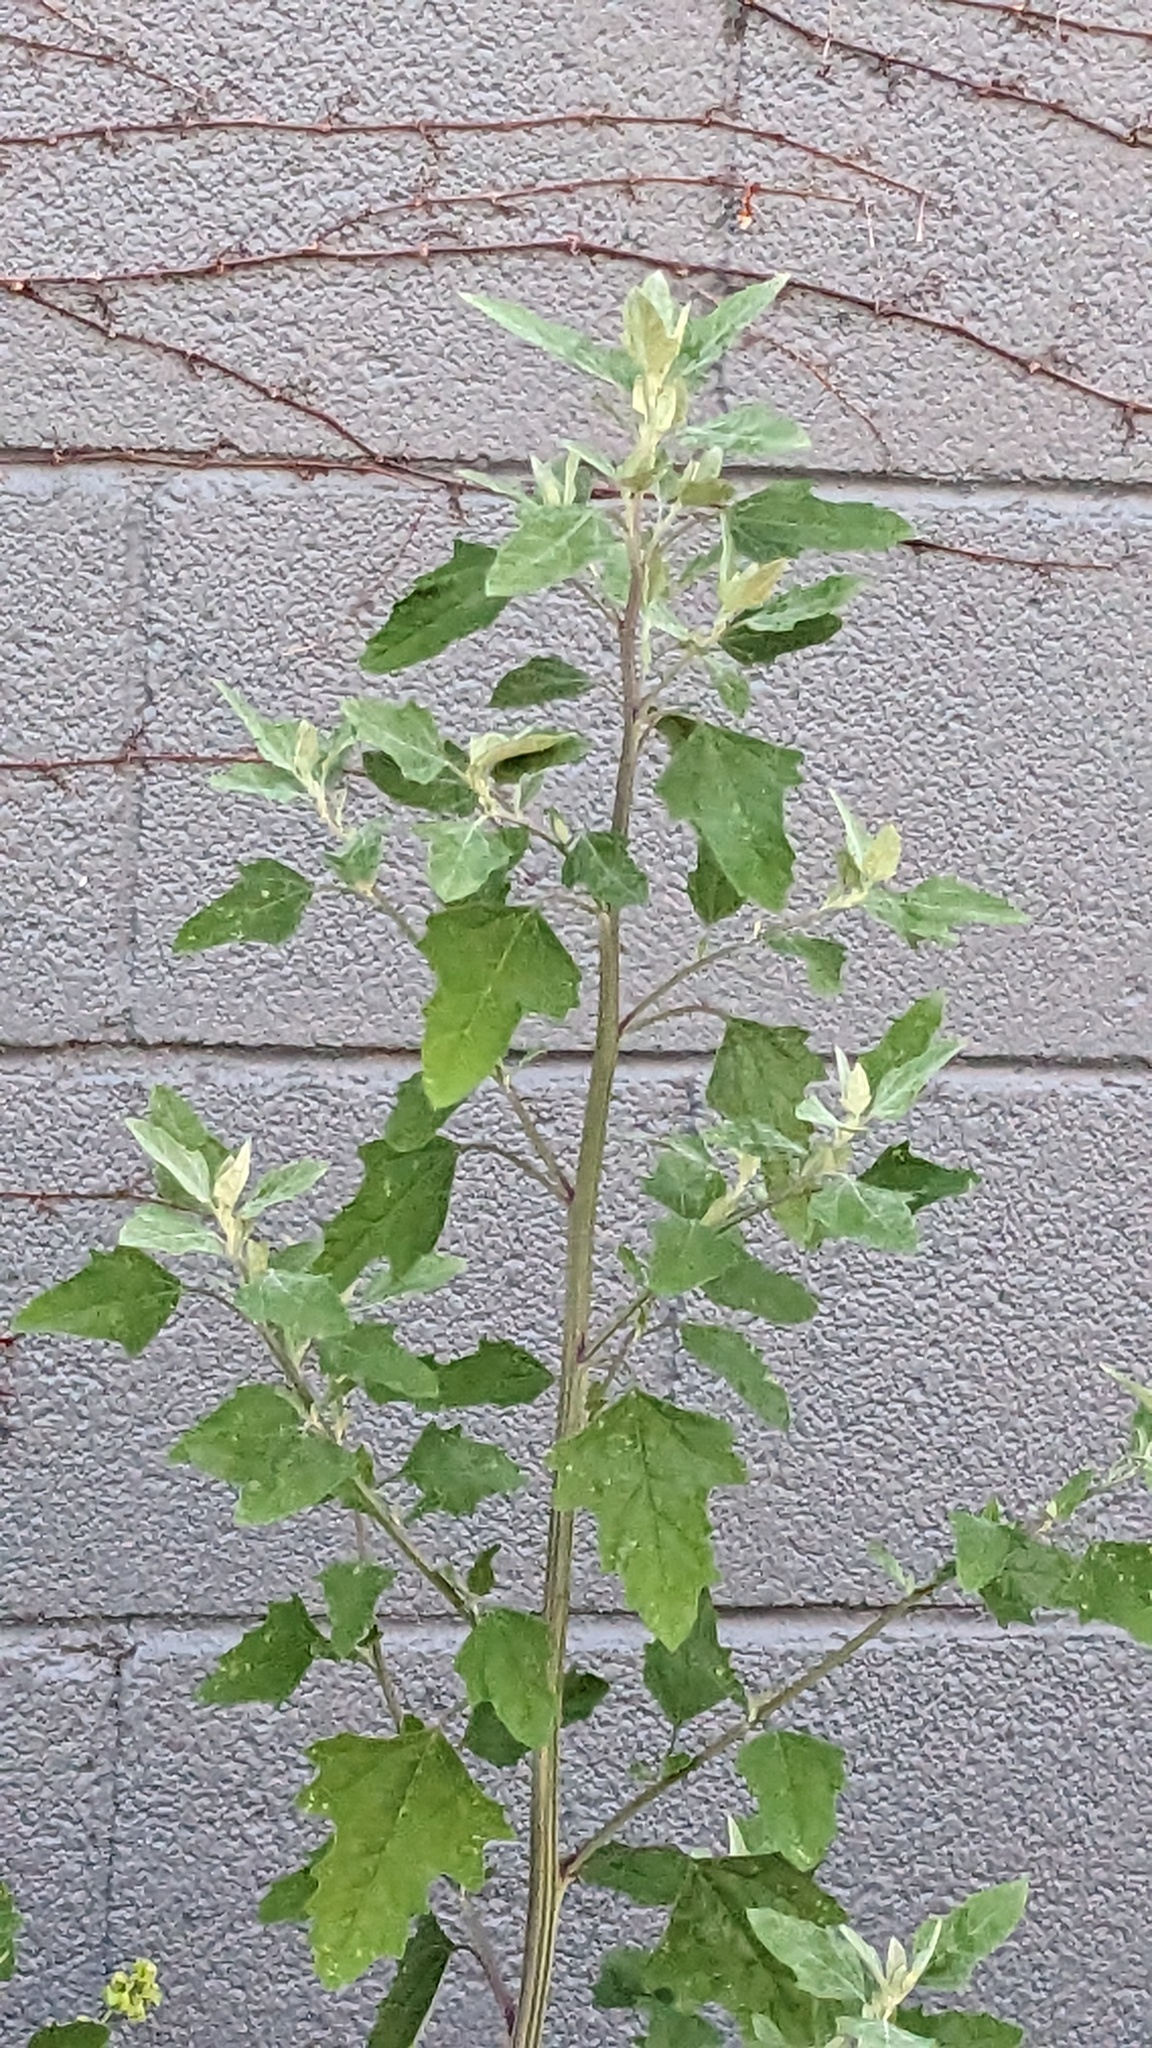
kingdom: Plantae
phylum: Tracheophyta
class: Magnoliopsida
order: Caryophyllales
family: Amaranthaceae
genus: Chenopodium
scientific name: Chenopodium album
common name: Fat-hen
